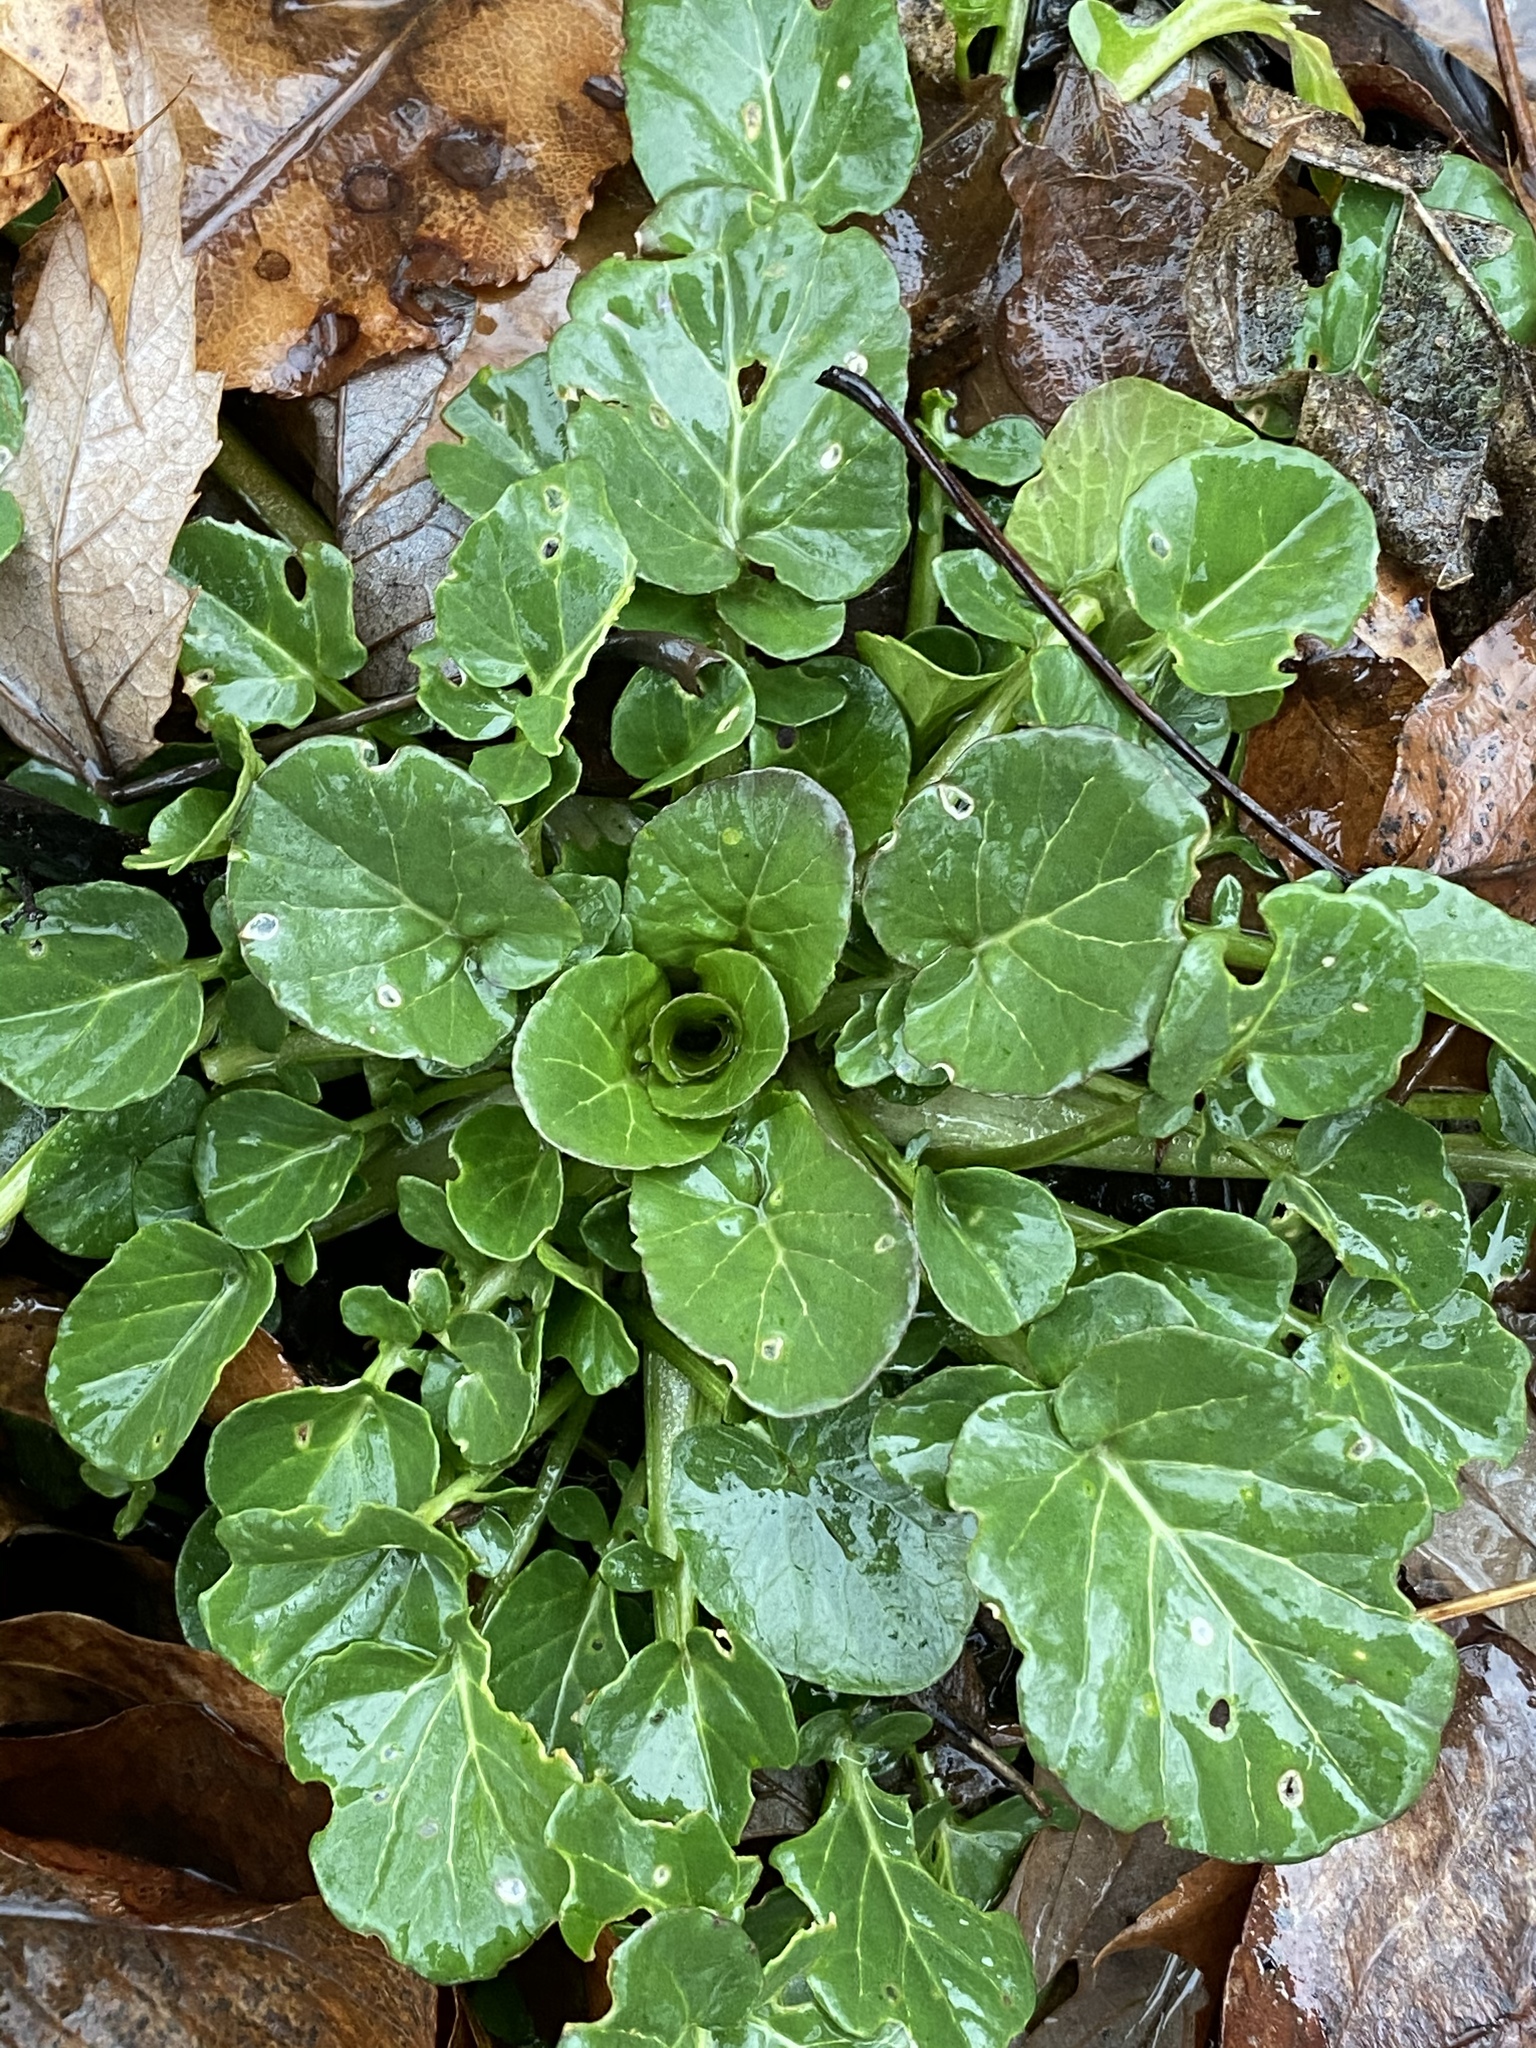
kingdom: Plantae
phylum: Tracheophyta
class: Magnoliopsida
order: Brassicales
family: Brassicaceae
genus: Barbarea
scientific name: Barbarea vulgaris
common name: Cressy-greens
